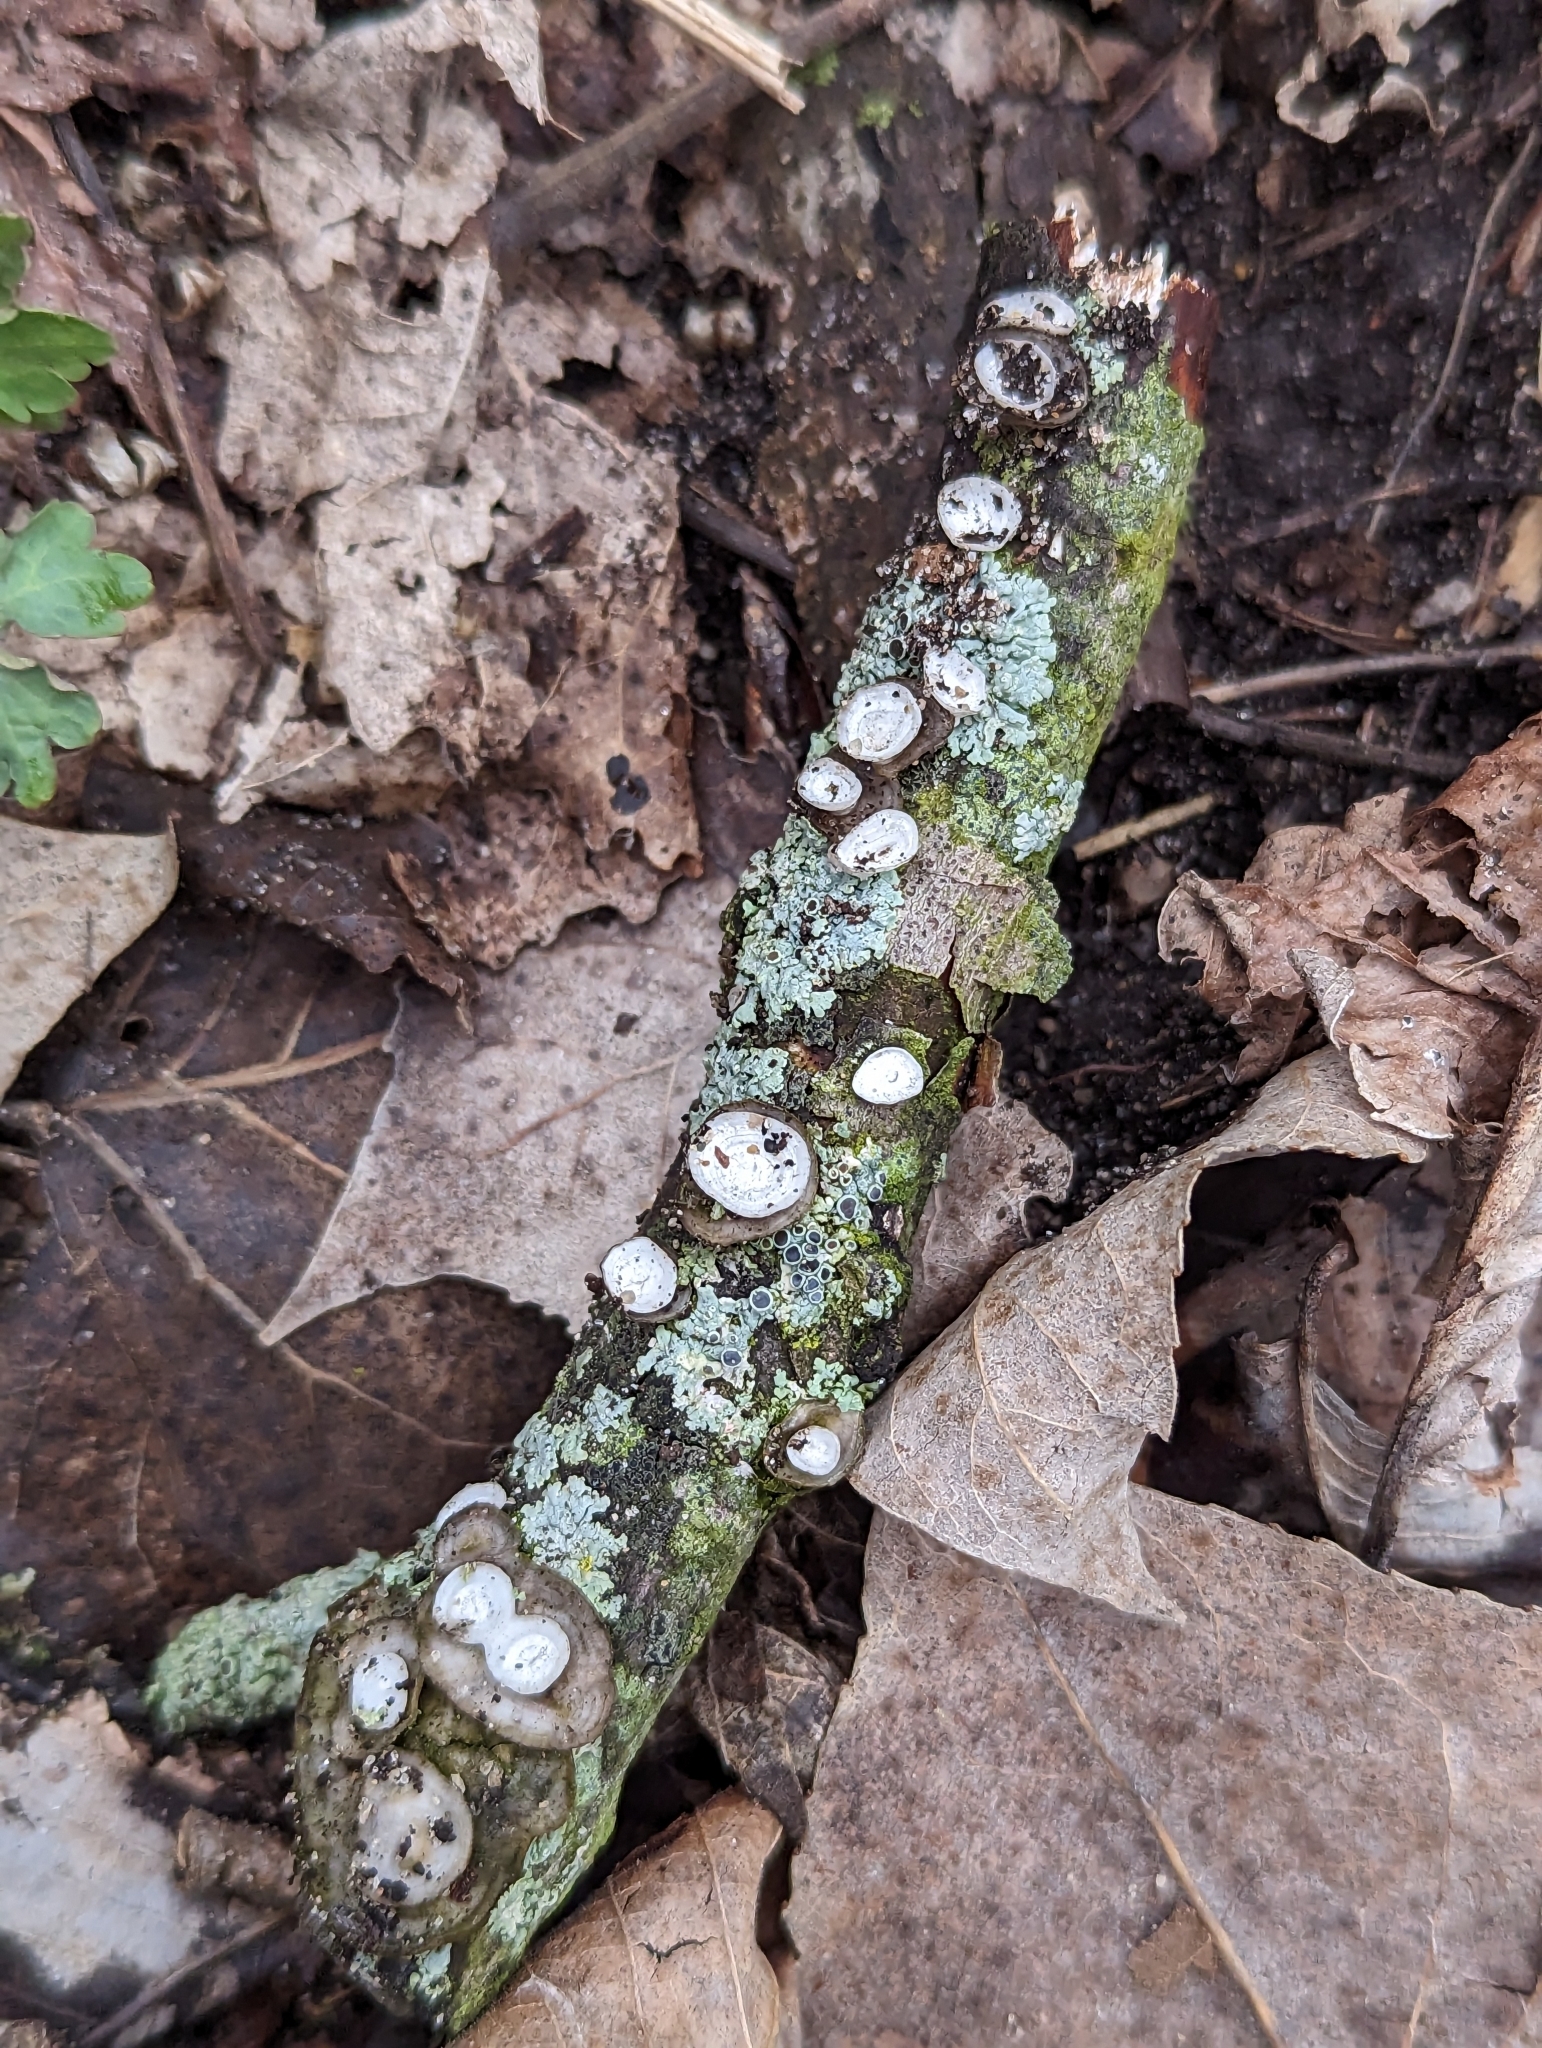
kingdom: Fungi
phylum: Basidiomycota
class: Agaricomycetes
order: Polyporales
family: Polyporaceae
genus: Poronidulus
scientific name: Poronidulus conchifer
